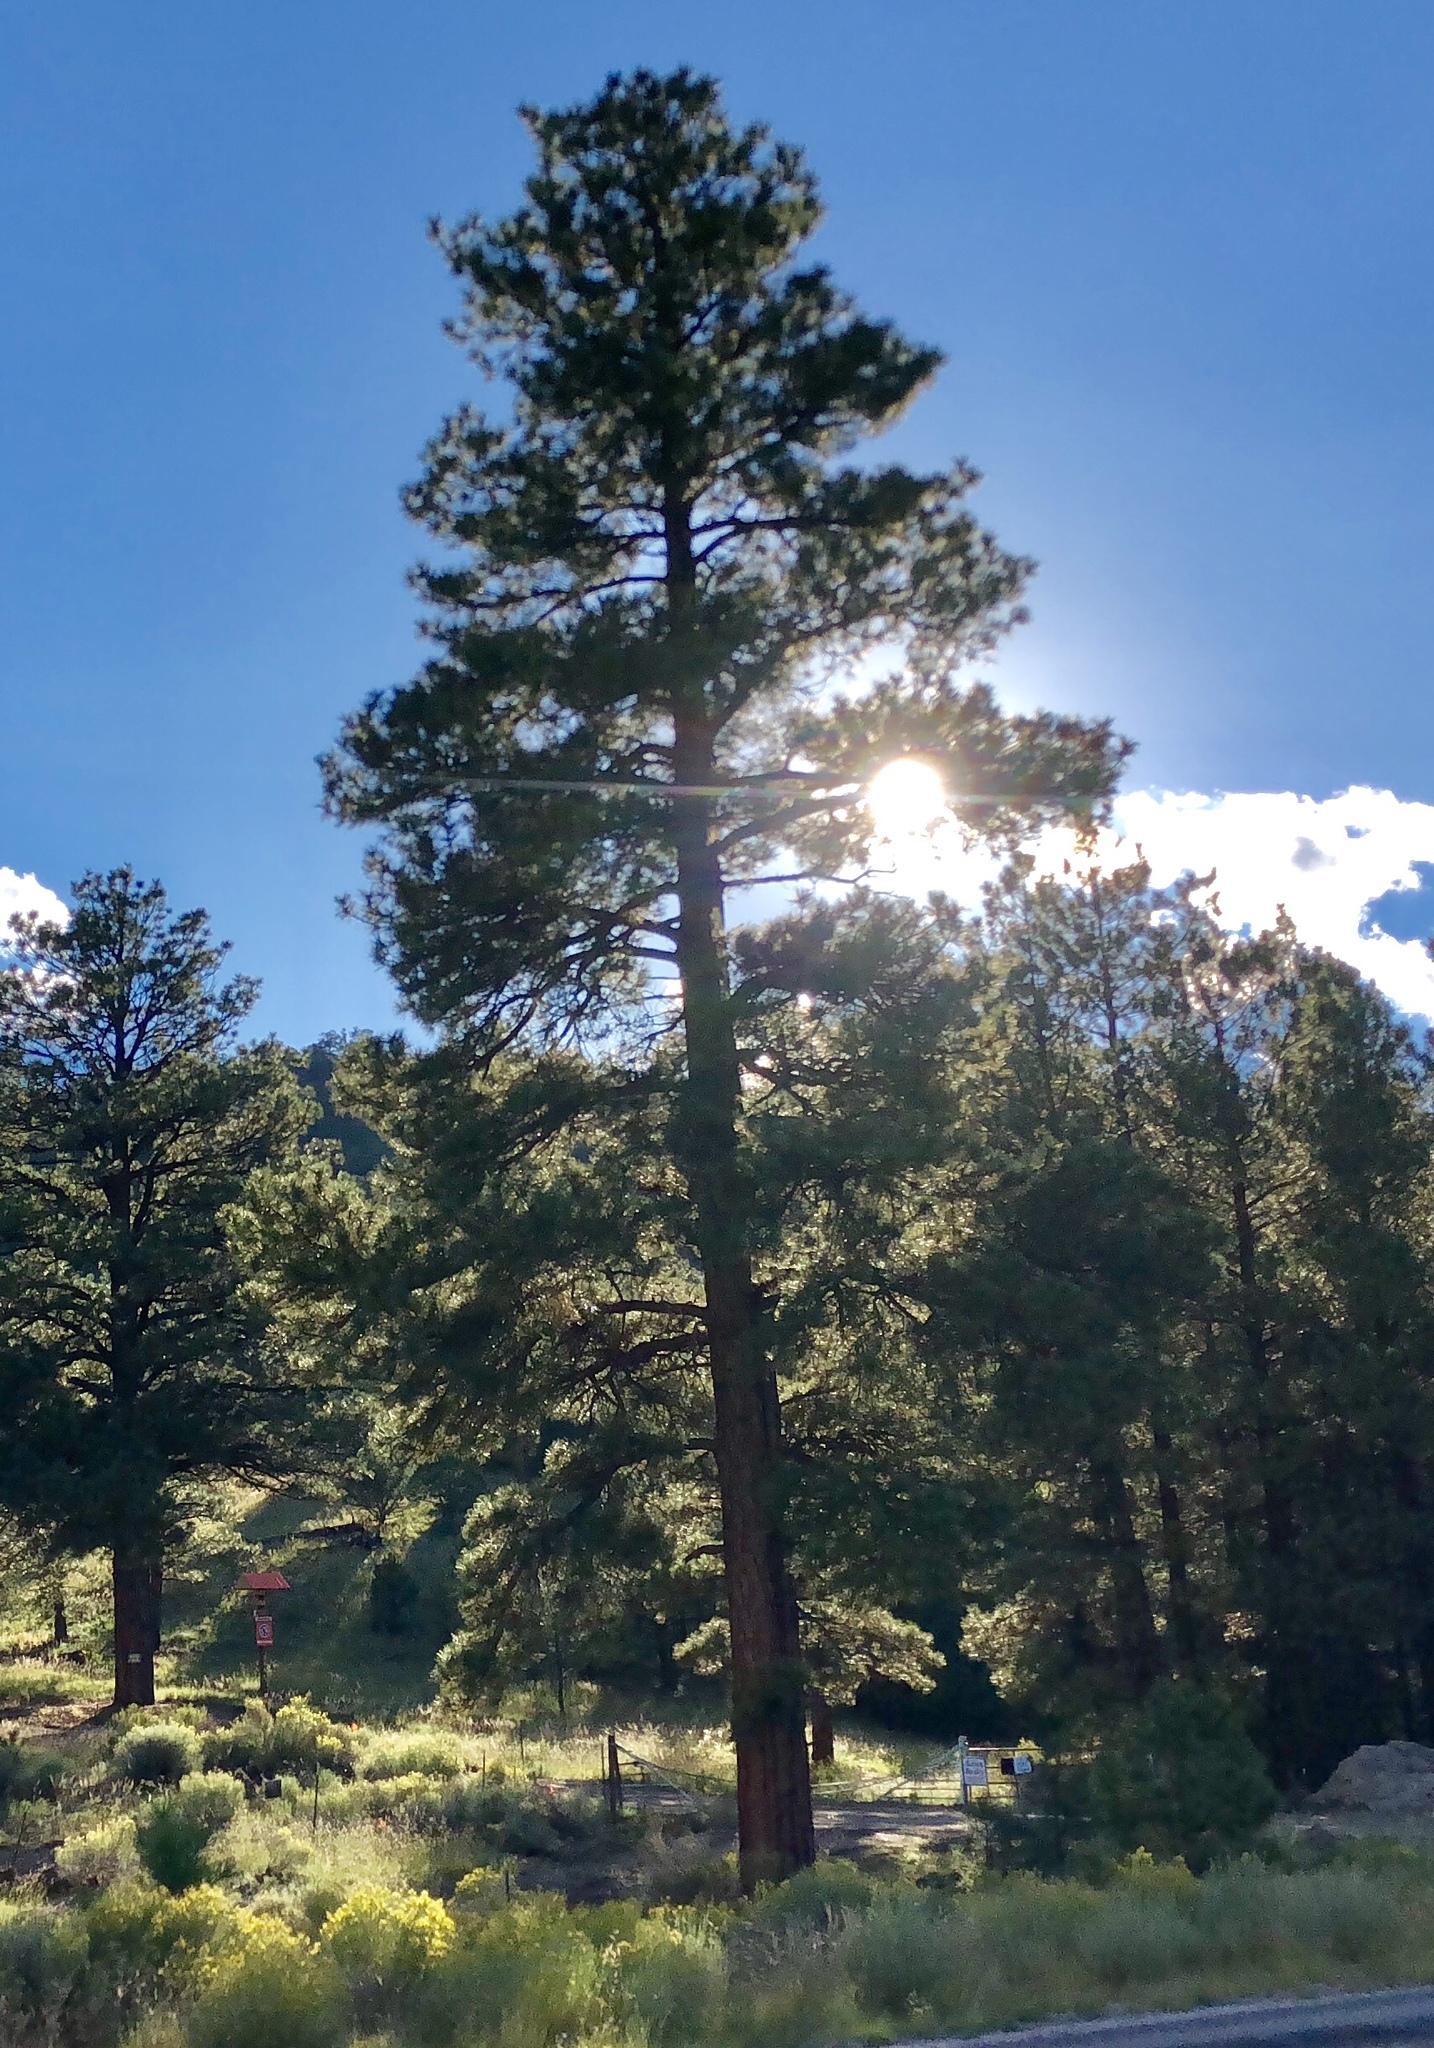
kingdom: Plantae
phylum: Tracheophyta
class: Pinopsida
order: Pinales
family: Pinaceae
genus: Pinus
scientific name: Pinus ponderosa
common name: Western yellow-pine
